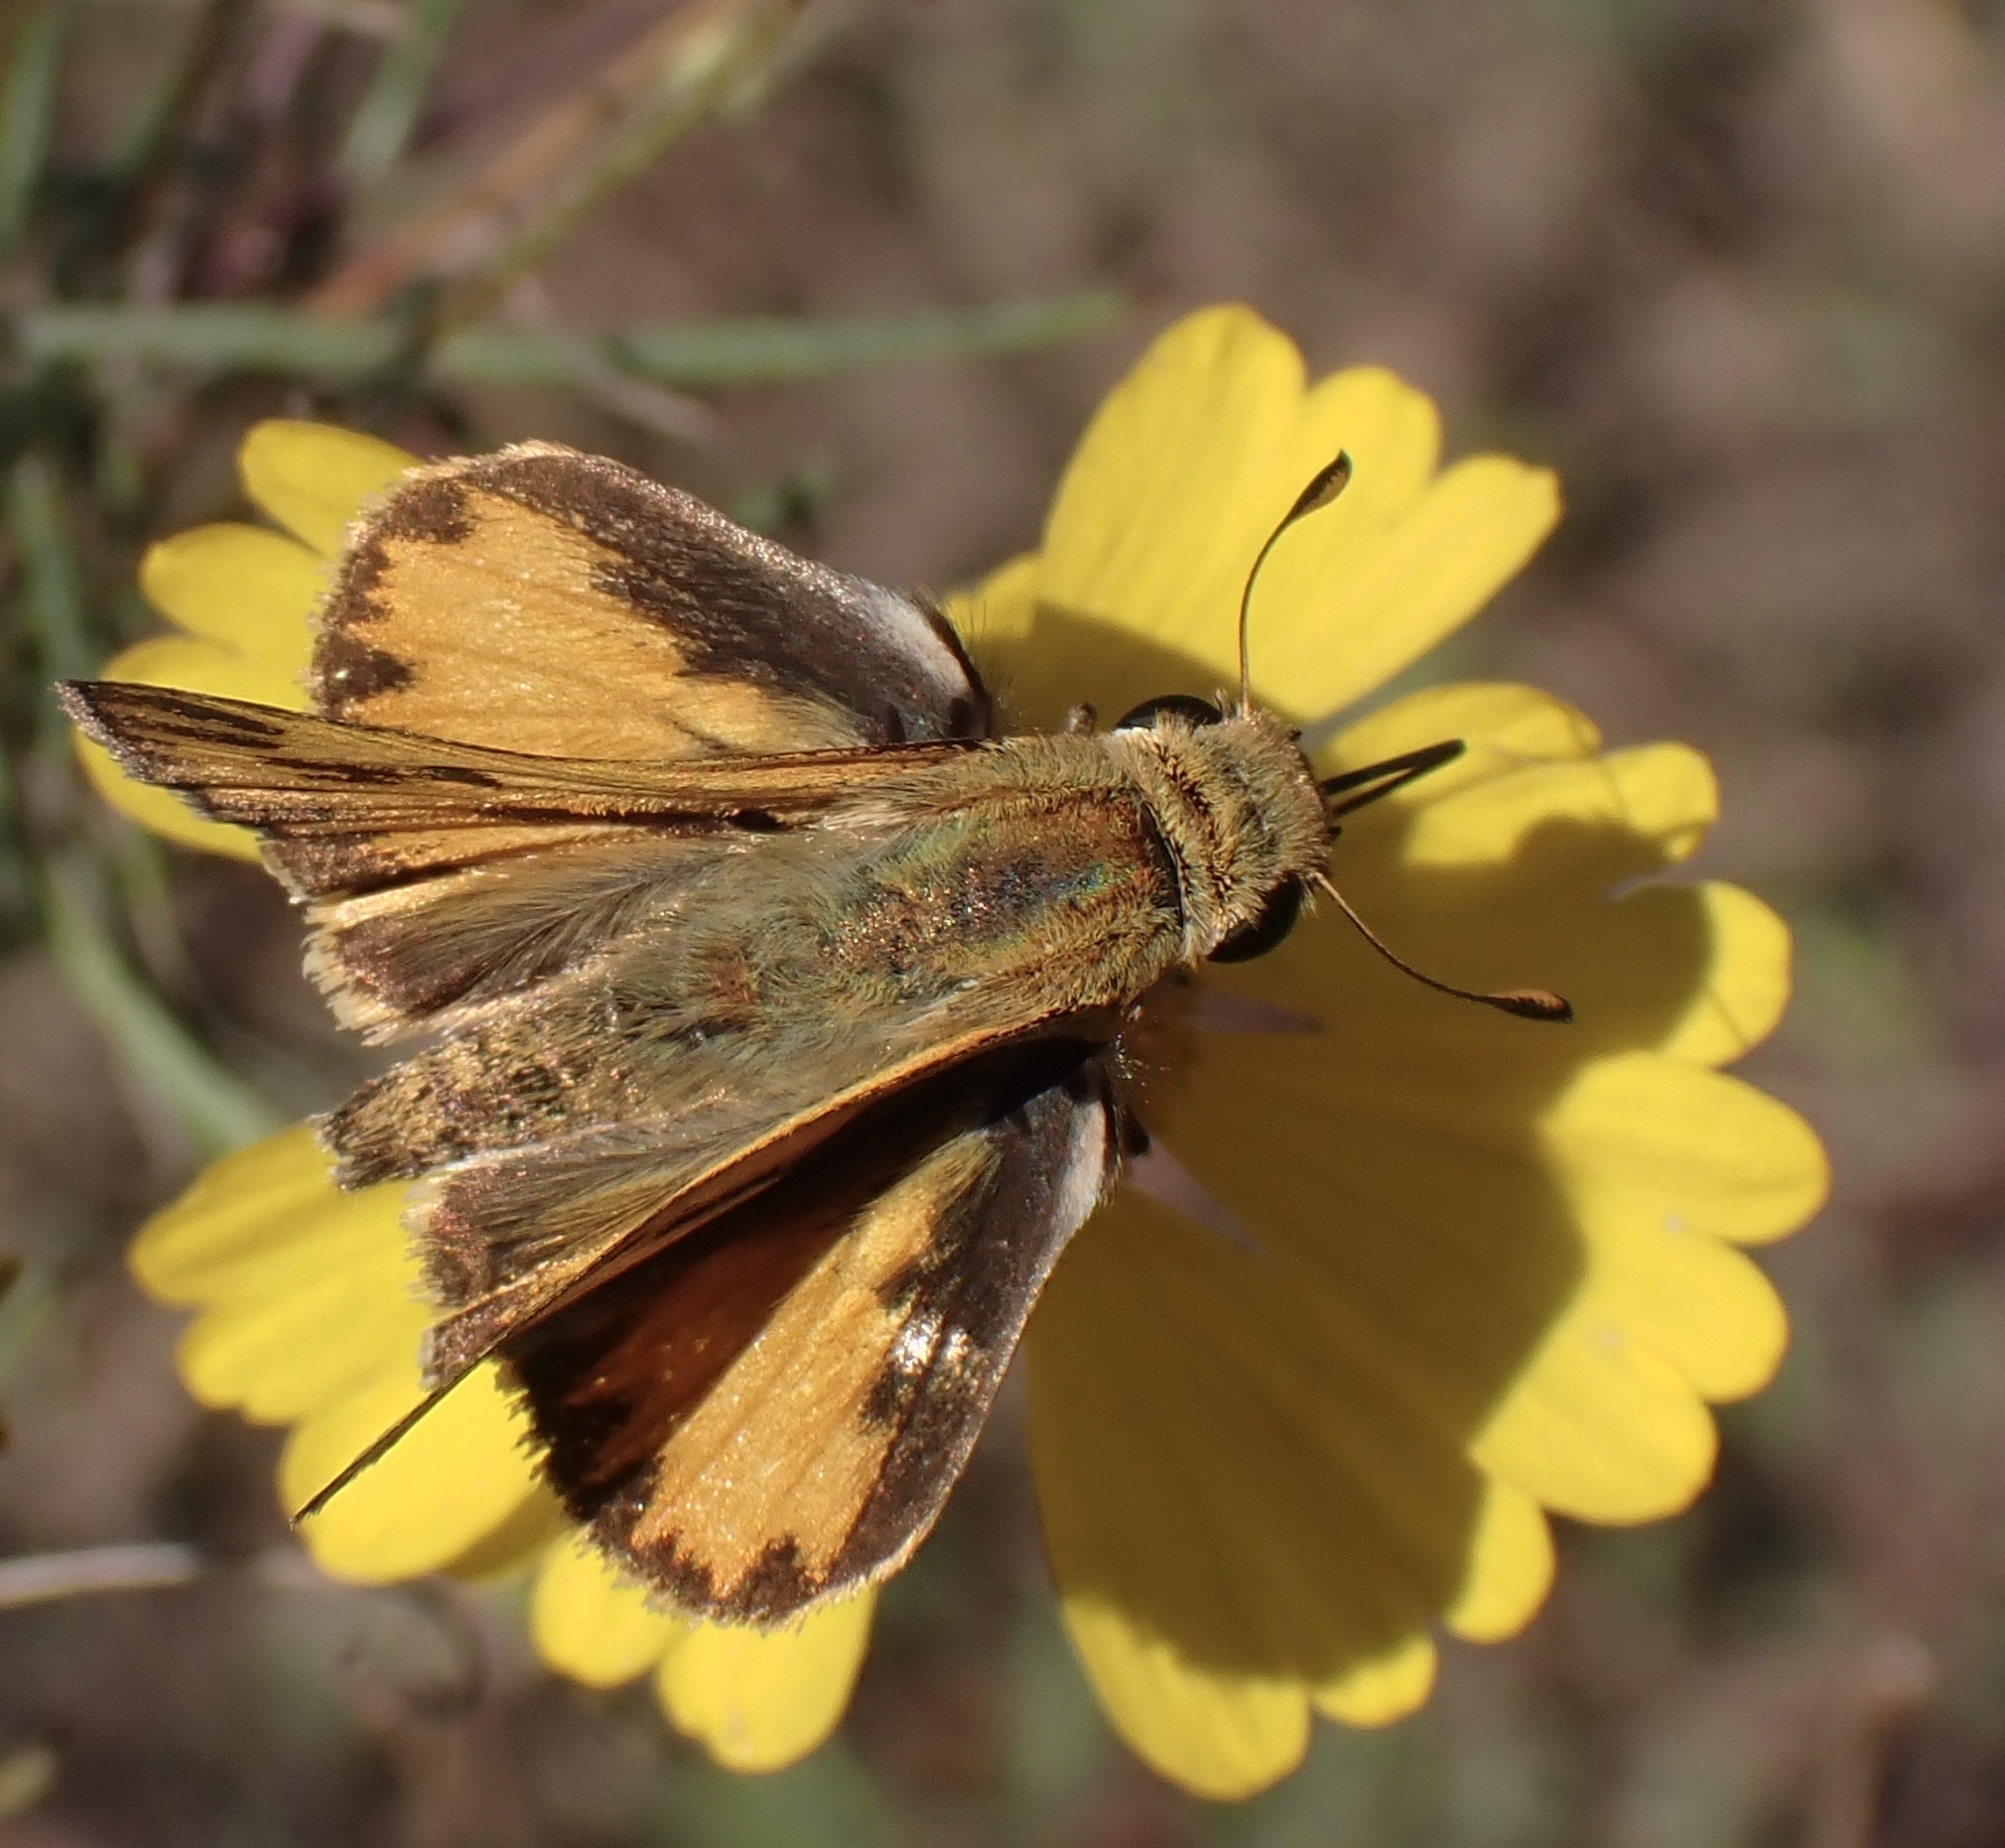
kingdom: Animalia
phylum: Arthropoda
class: Insecta
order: Lepidoptera
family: Hesperiidae
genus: Hylephila
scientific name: Hylephila phyleus
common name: Fiery skipper
